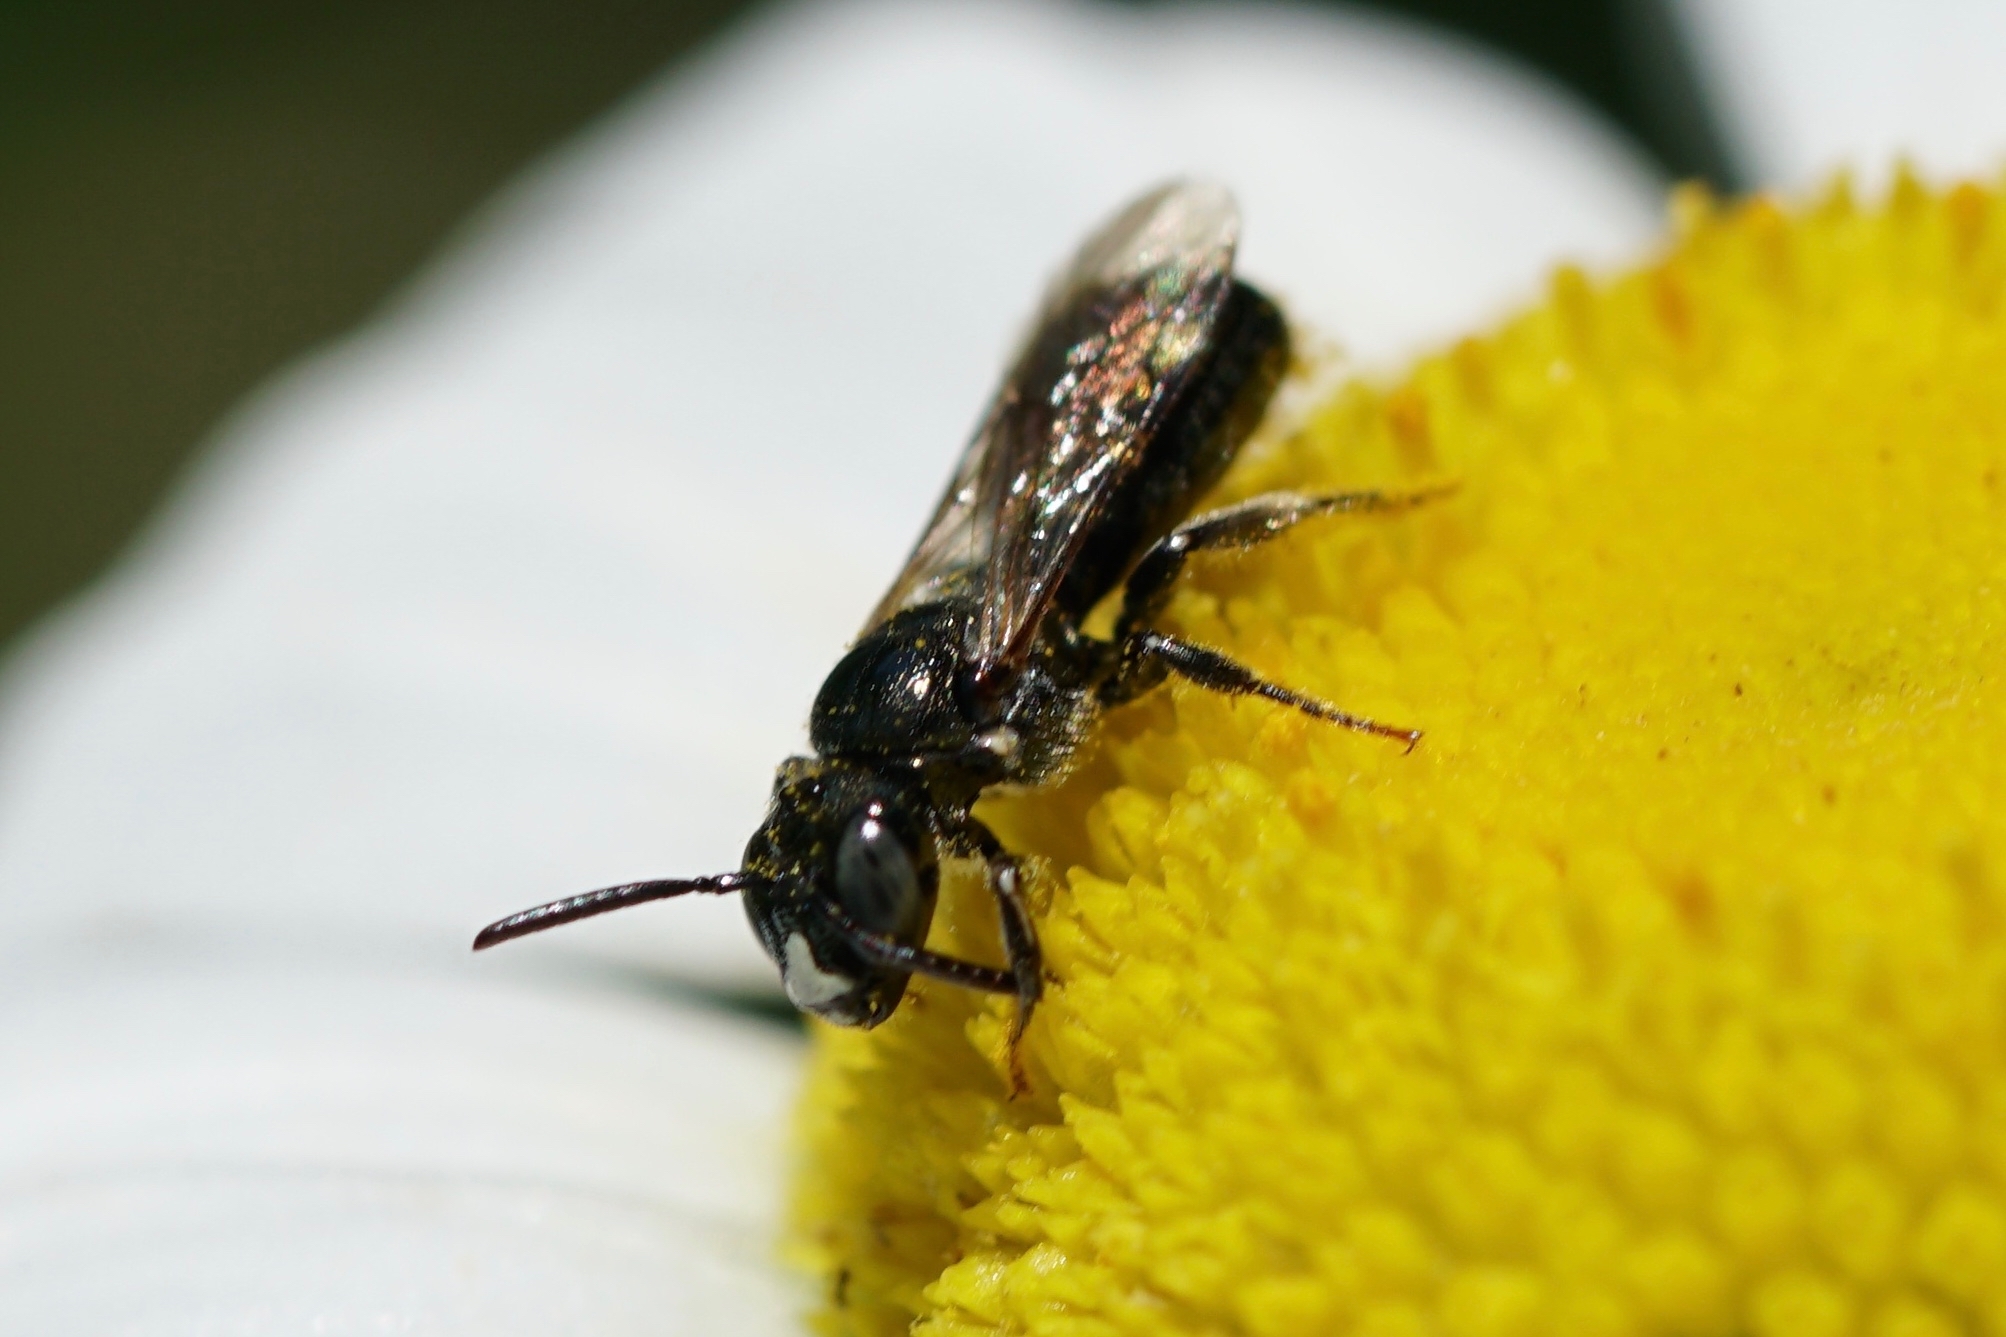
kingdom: Animalia
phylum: Arthropoda
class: Insecta
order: Hymenoptera
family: Apidae
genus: Ceratina
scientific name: Ceratina strenua
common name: Nimble carpenter bee
